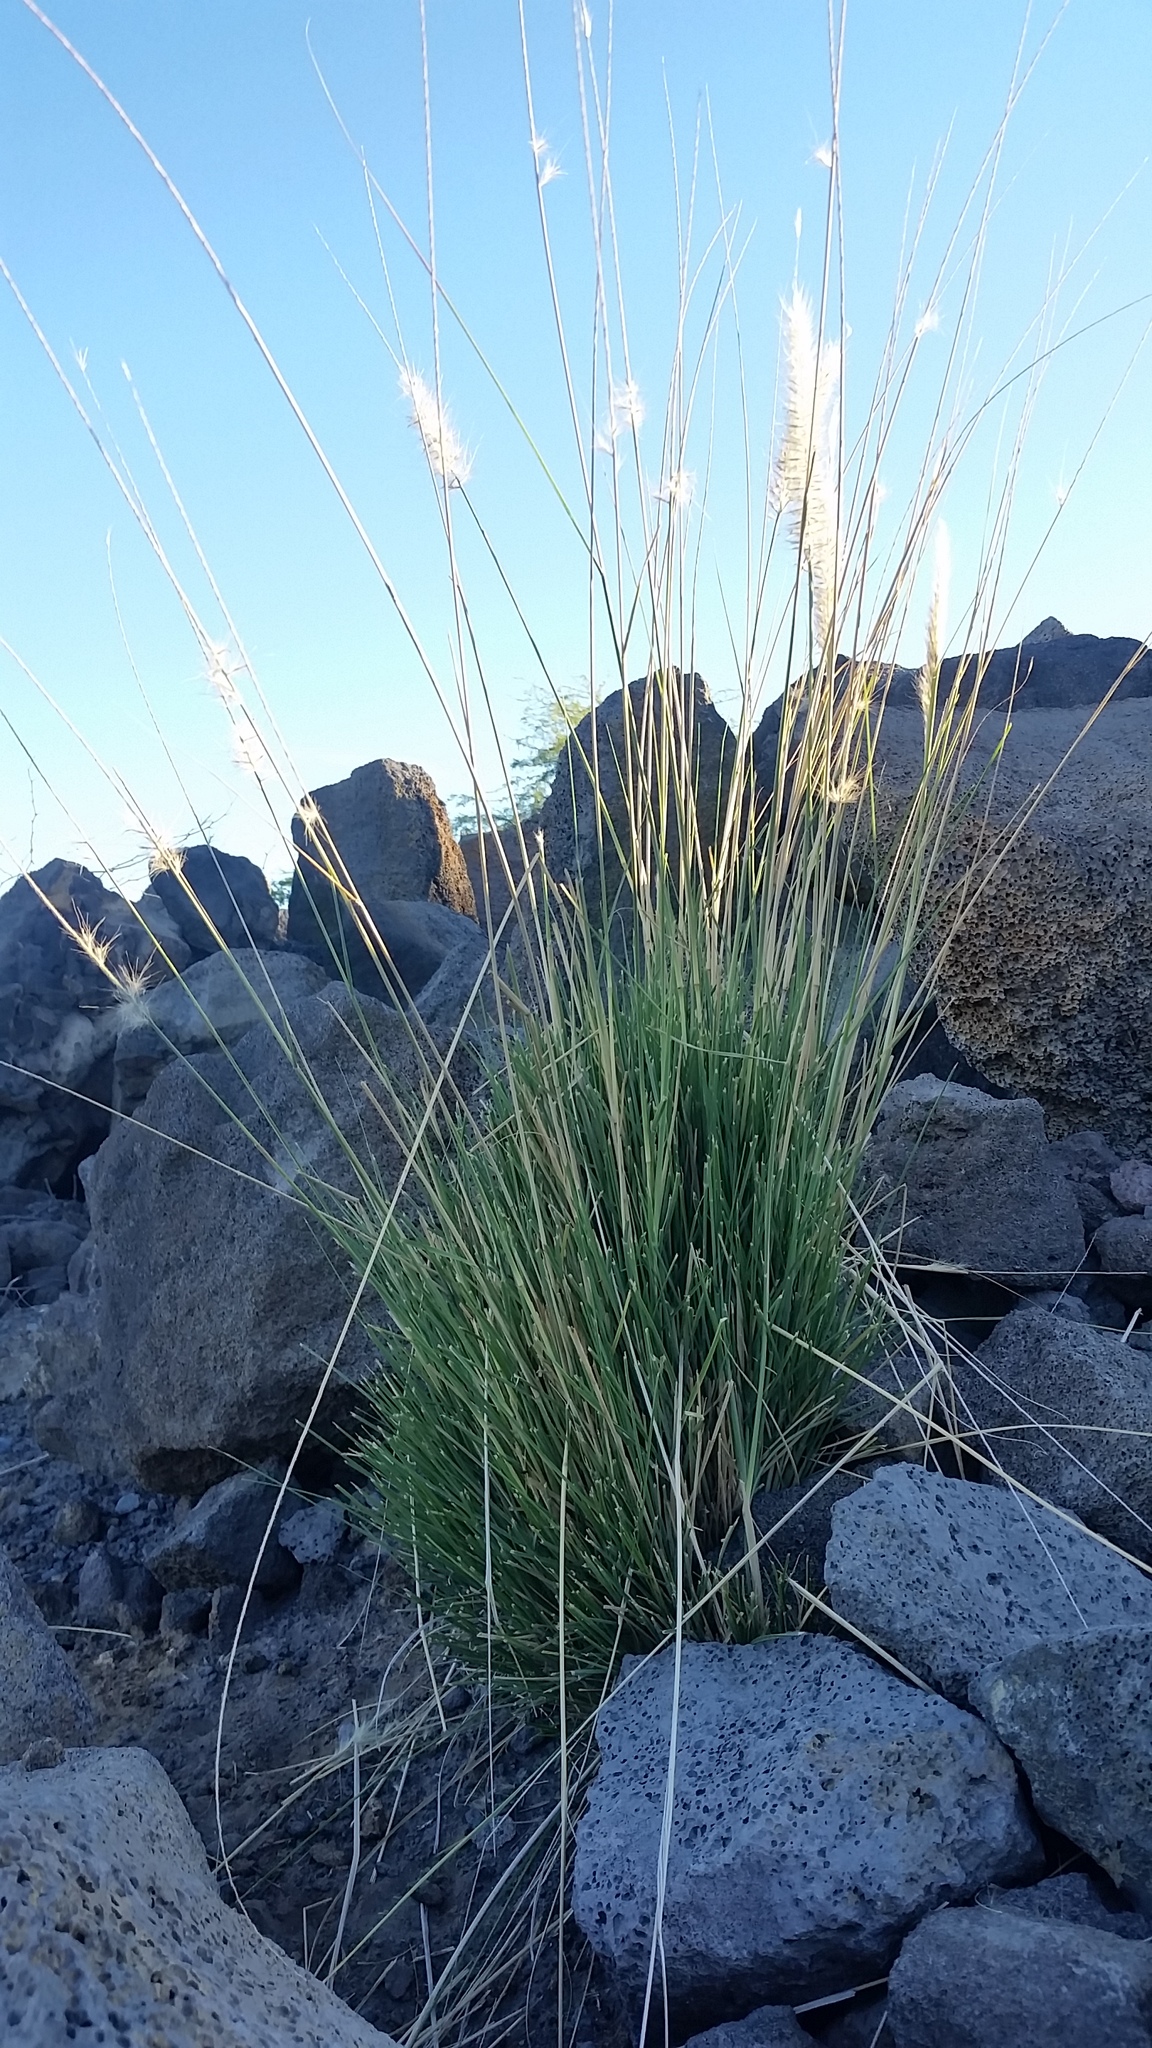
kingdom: Plantae
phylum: Tracheophyta
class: Liliopsida
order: Poales
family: Poaceae
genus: Cenchrus
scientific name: Cenchrus setaceus
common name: Crimson fountaingrass
